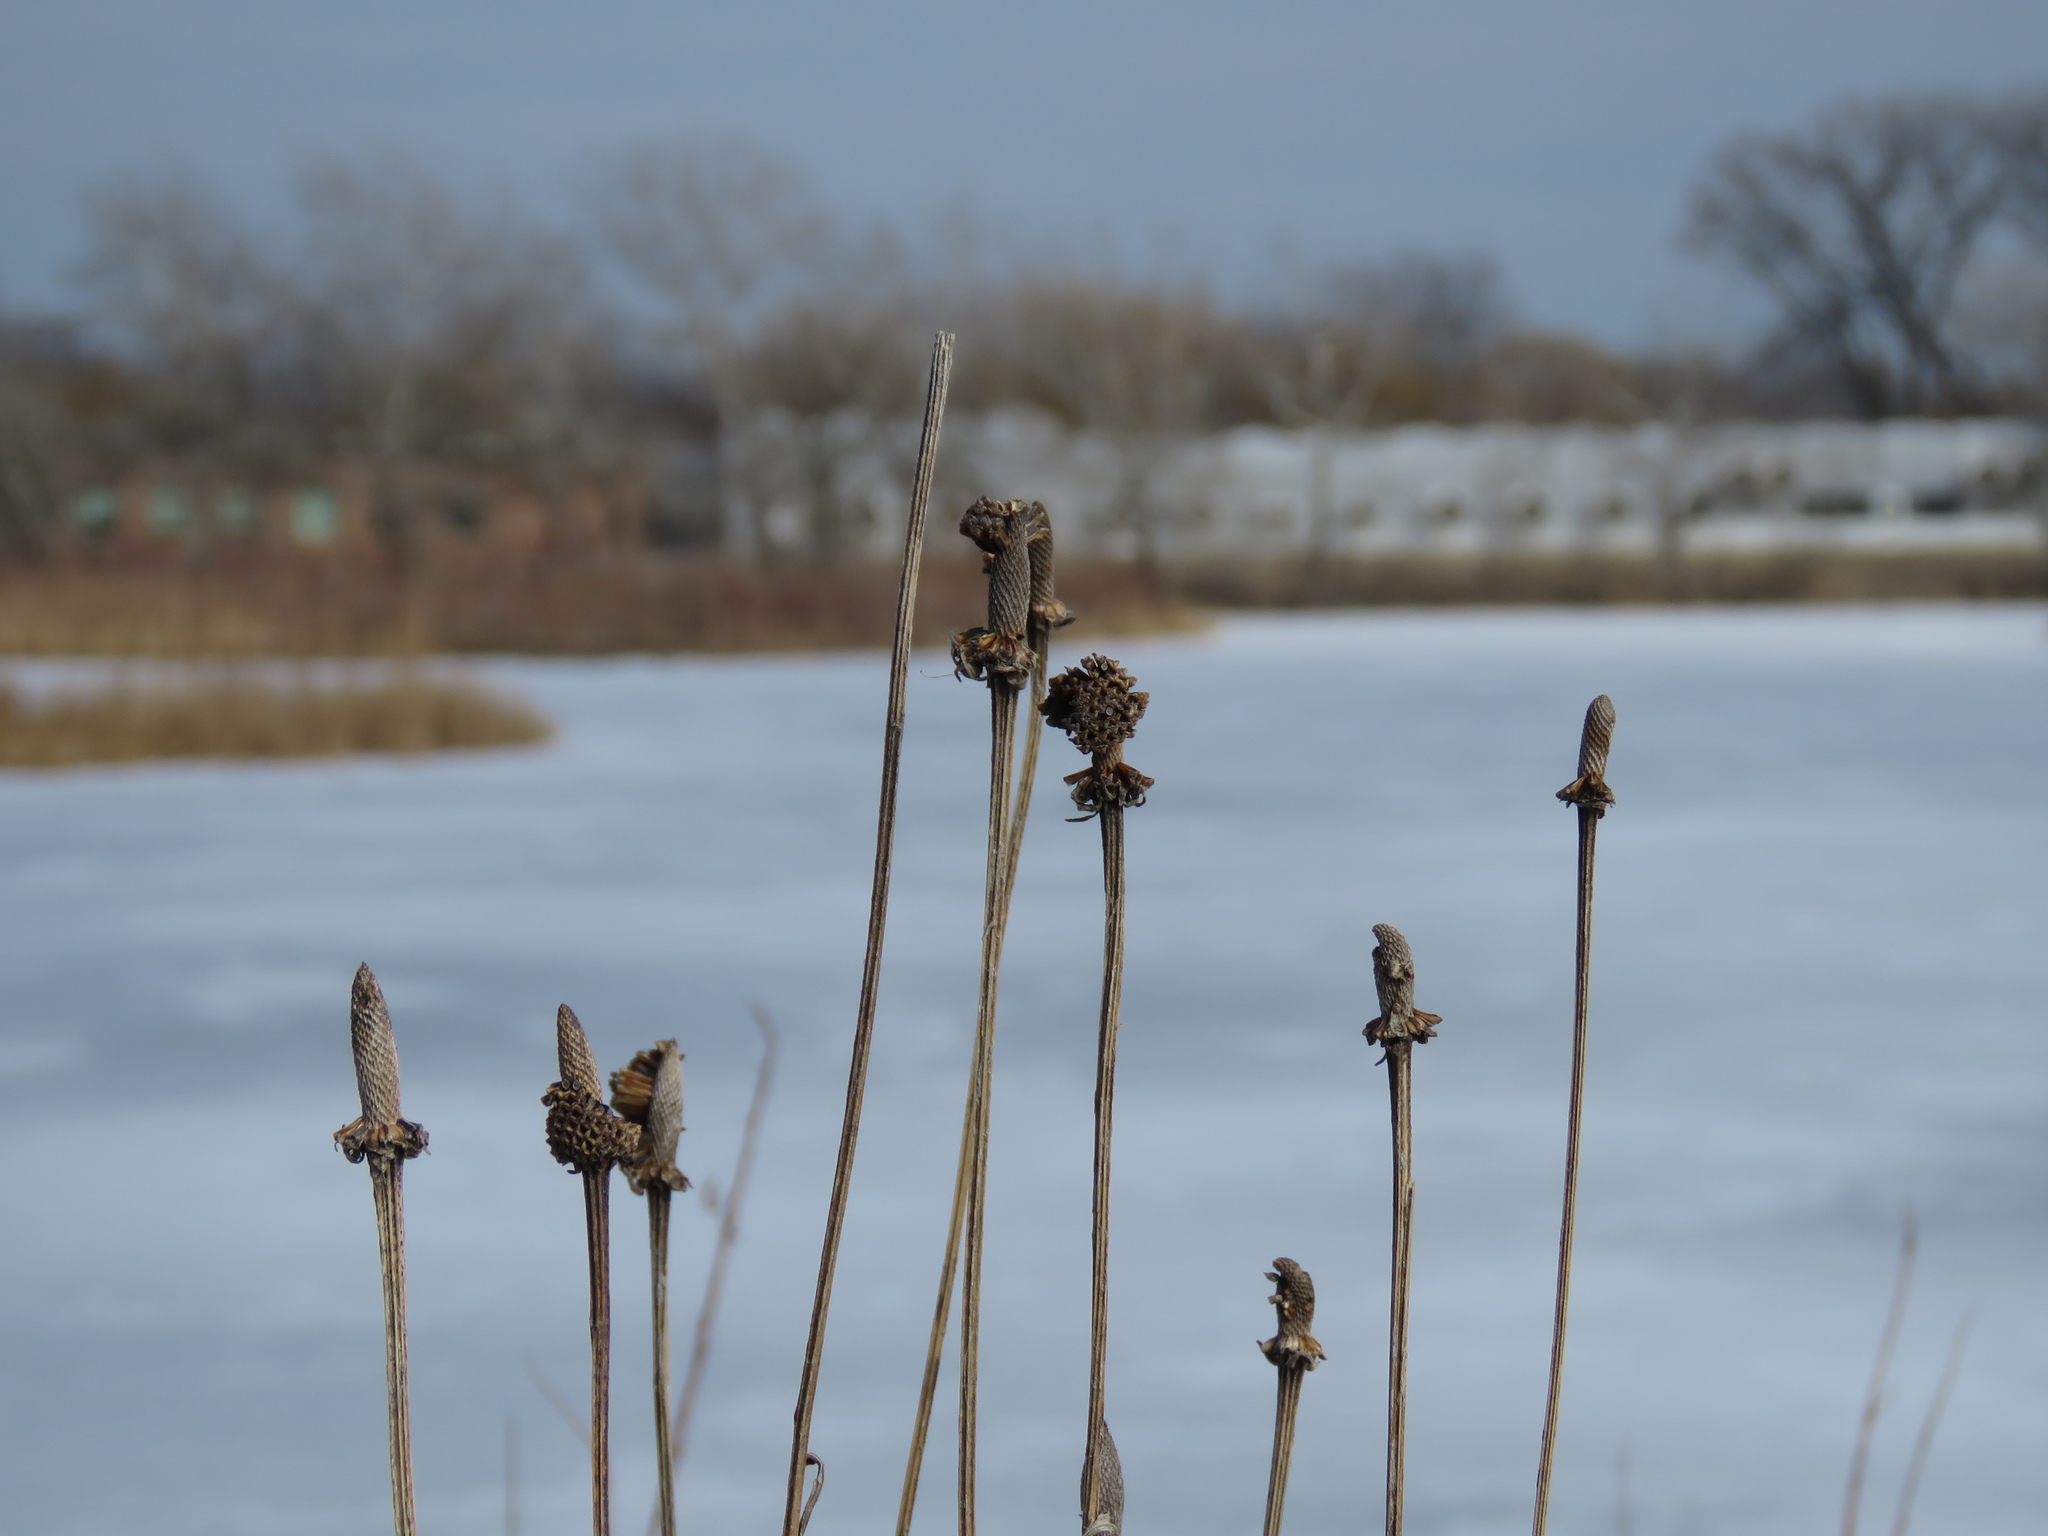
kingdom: Plantae
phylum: Tracheophyta
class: Magnoliopsida
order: Asterales
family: Asteraceae
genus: Ratibida
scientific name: Ratibida pinnata
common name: Drooping prairie-coneflower
